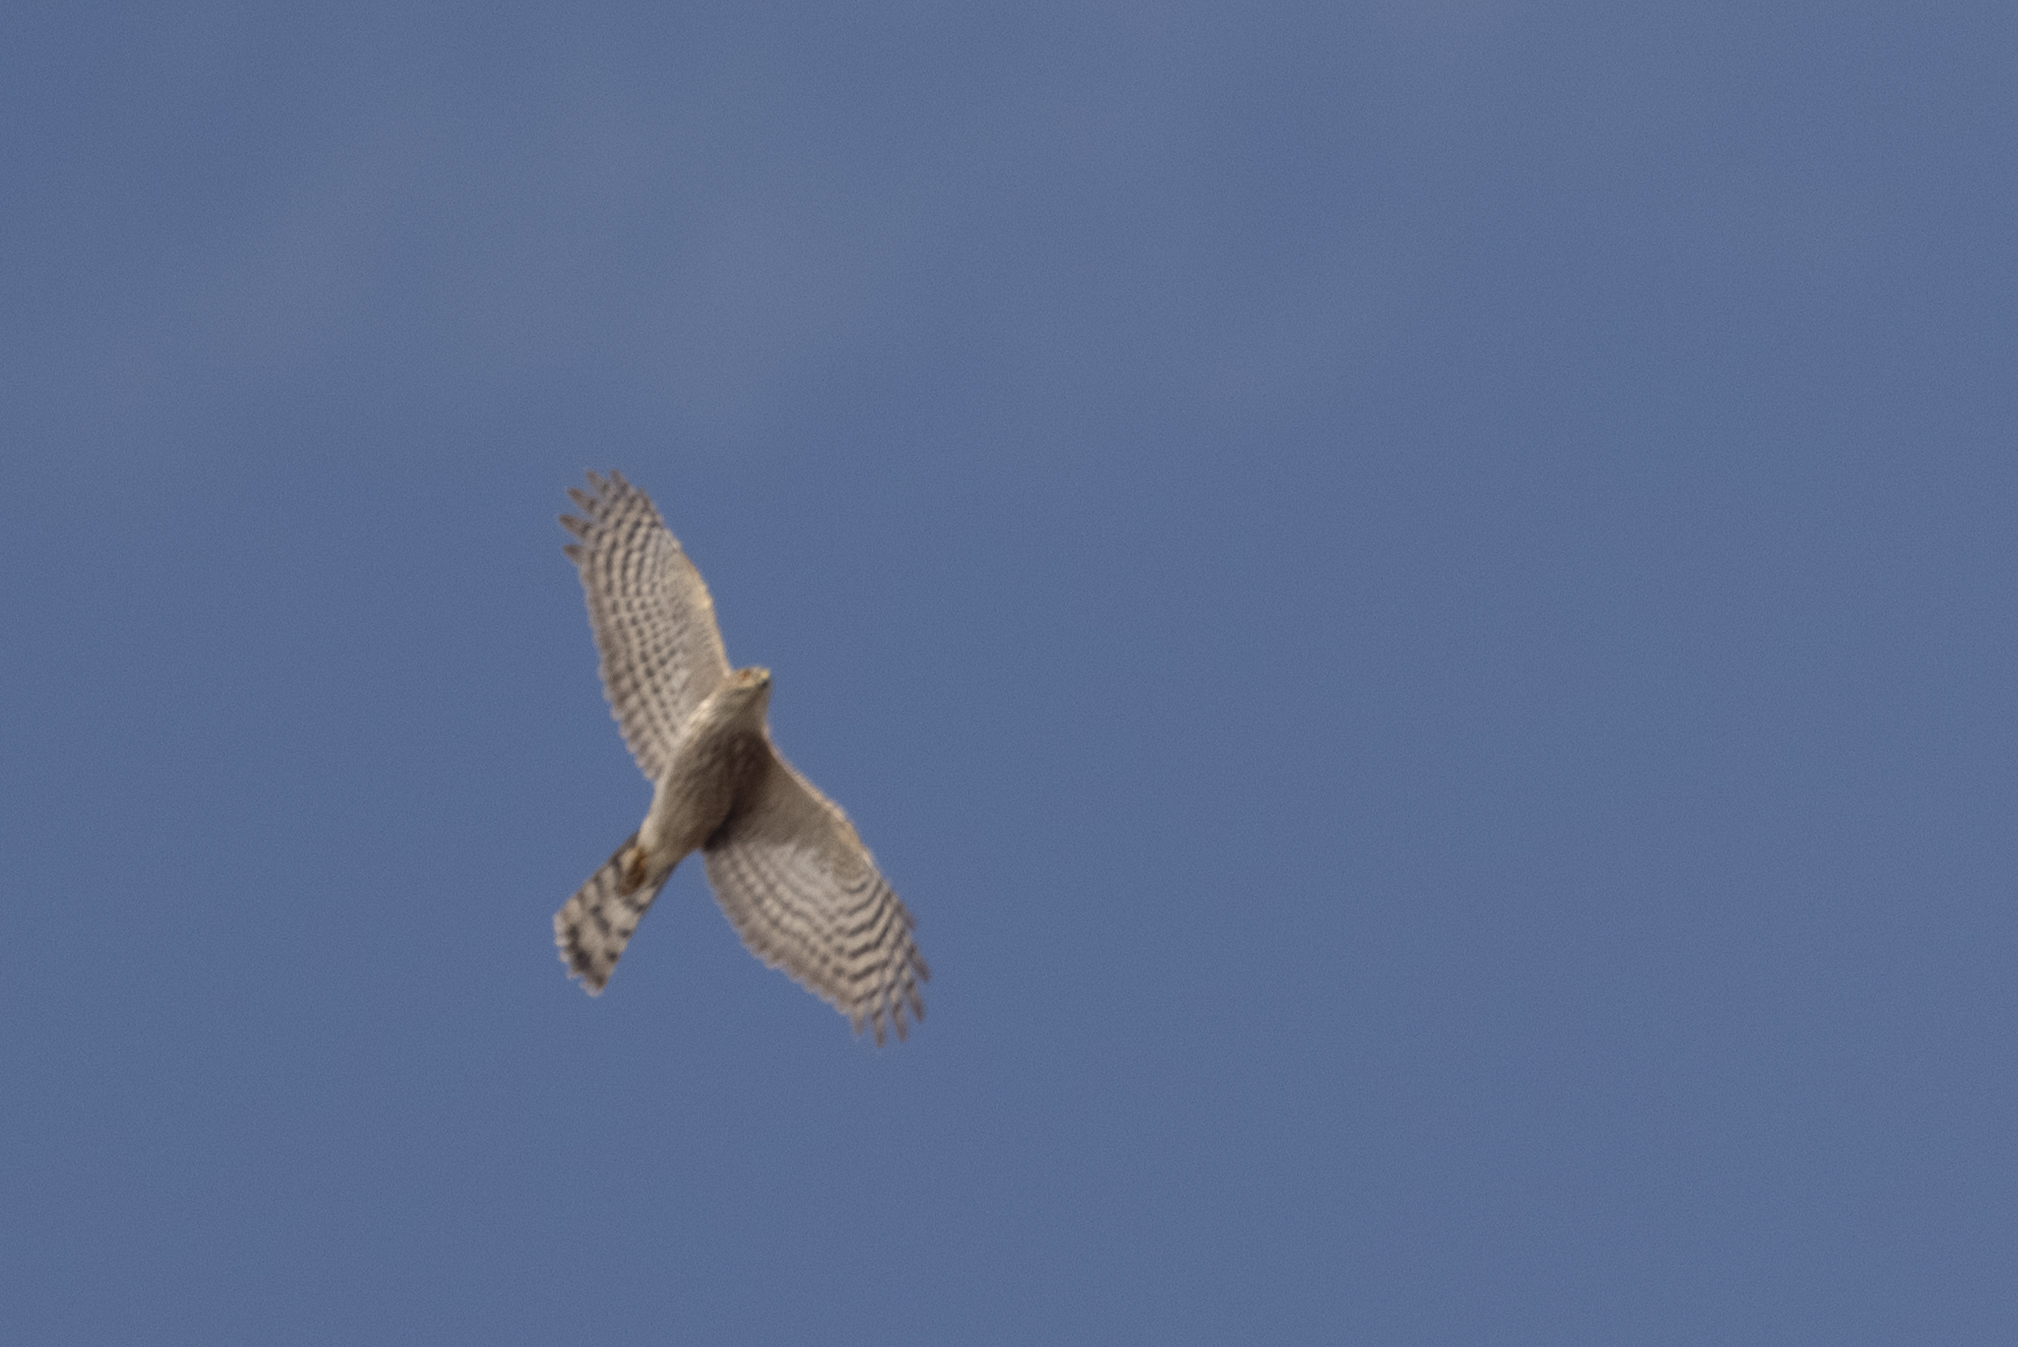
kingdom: Animalia
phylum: Chordata
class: Aves
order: Accipitriformes
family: Accipitridae
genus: Accipiter
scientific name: Accipiter striatus
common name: Sharp-shinned hawk
